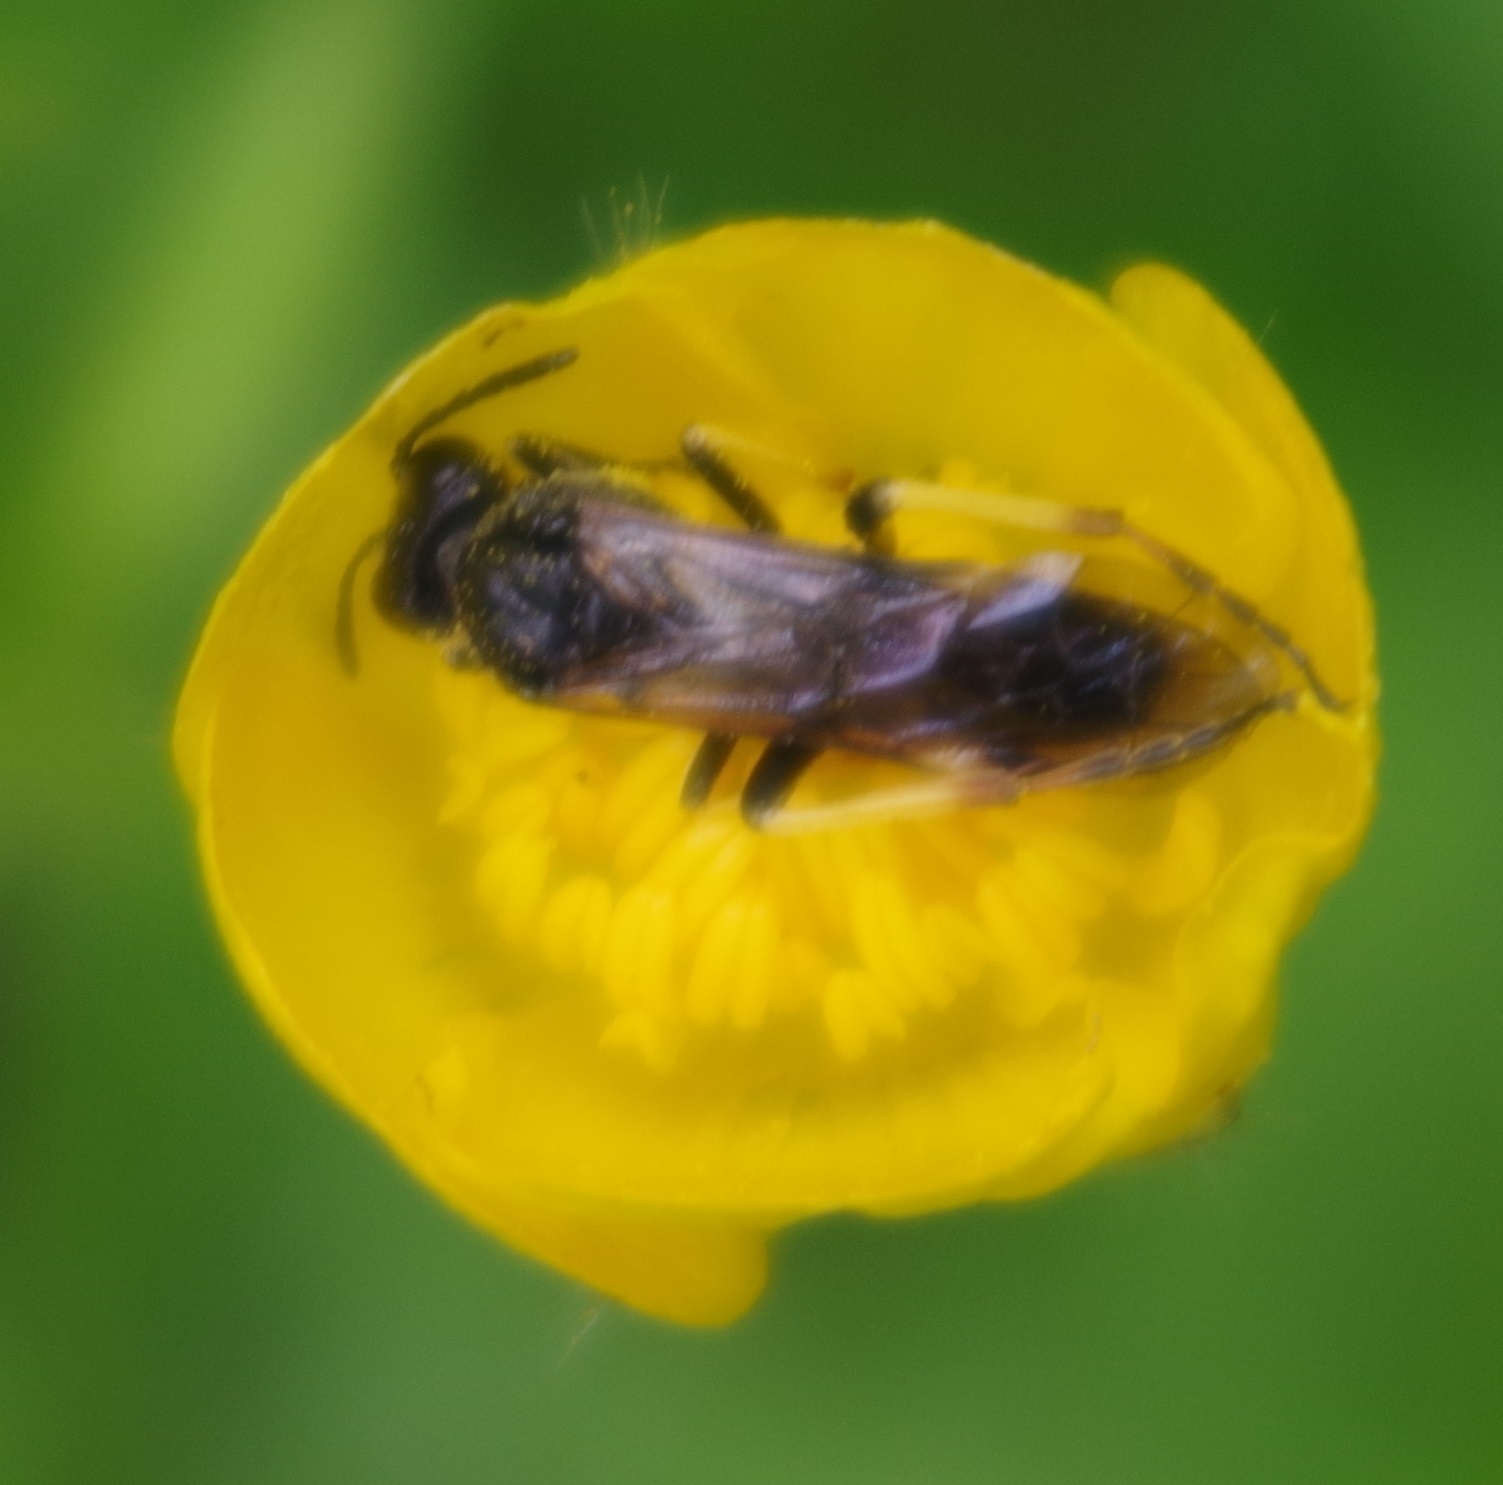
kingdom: Animalia
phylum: Arthropoda
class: Insecta
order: Hymenoptera
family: Tenthredinidae
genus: Tenthredo
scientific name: Tenthredo koehleri
